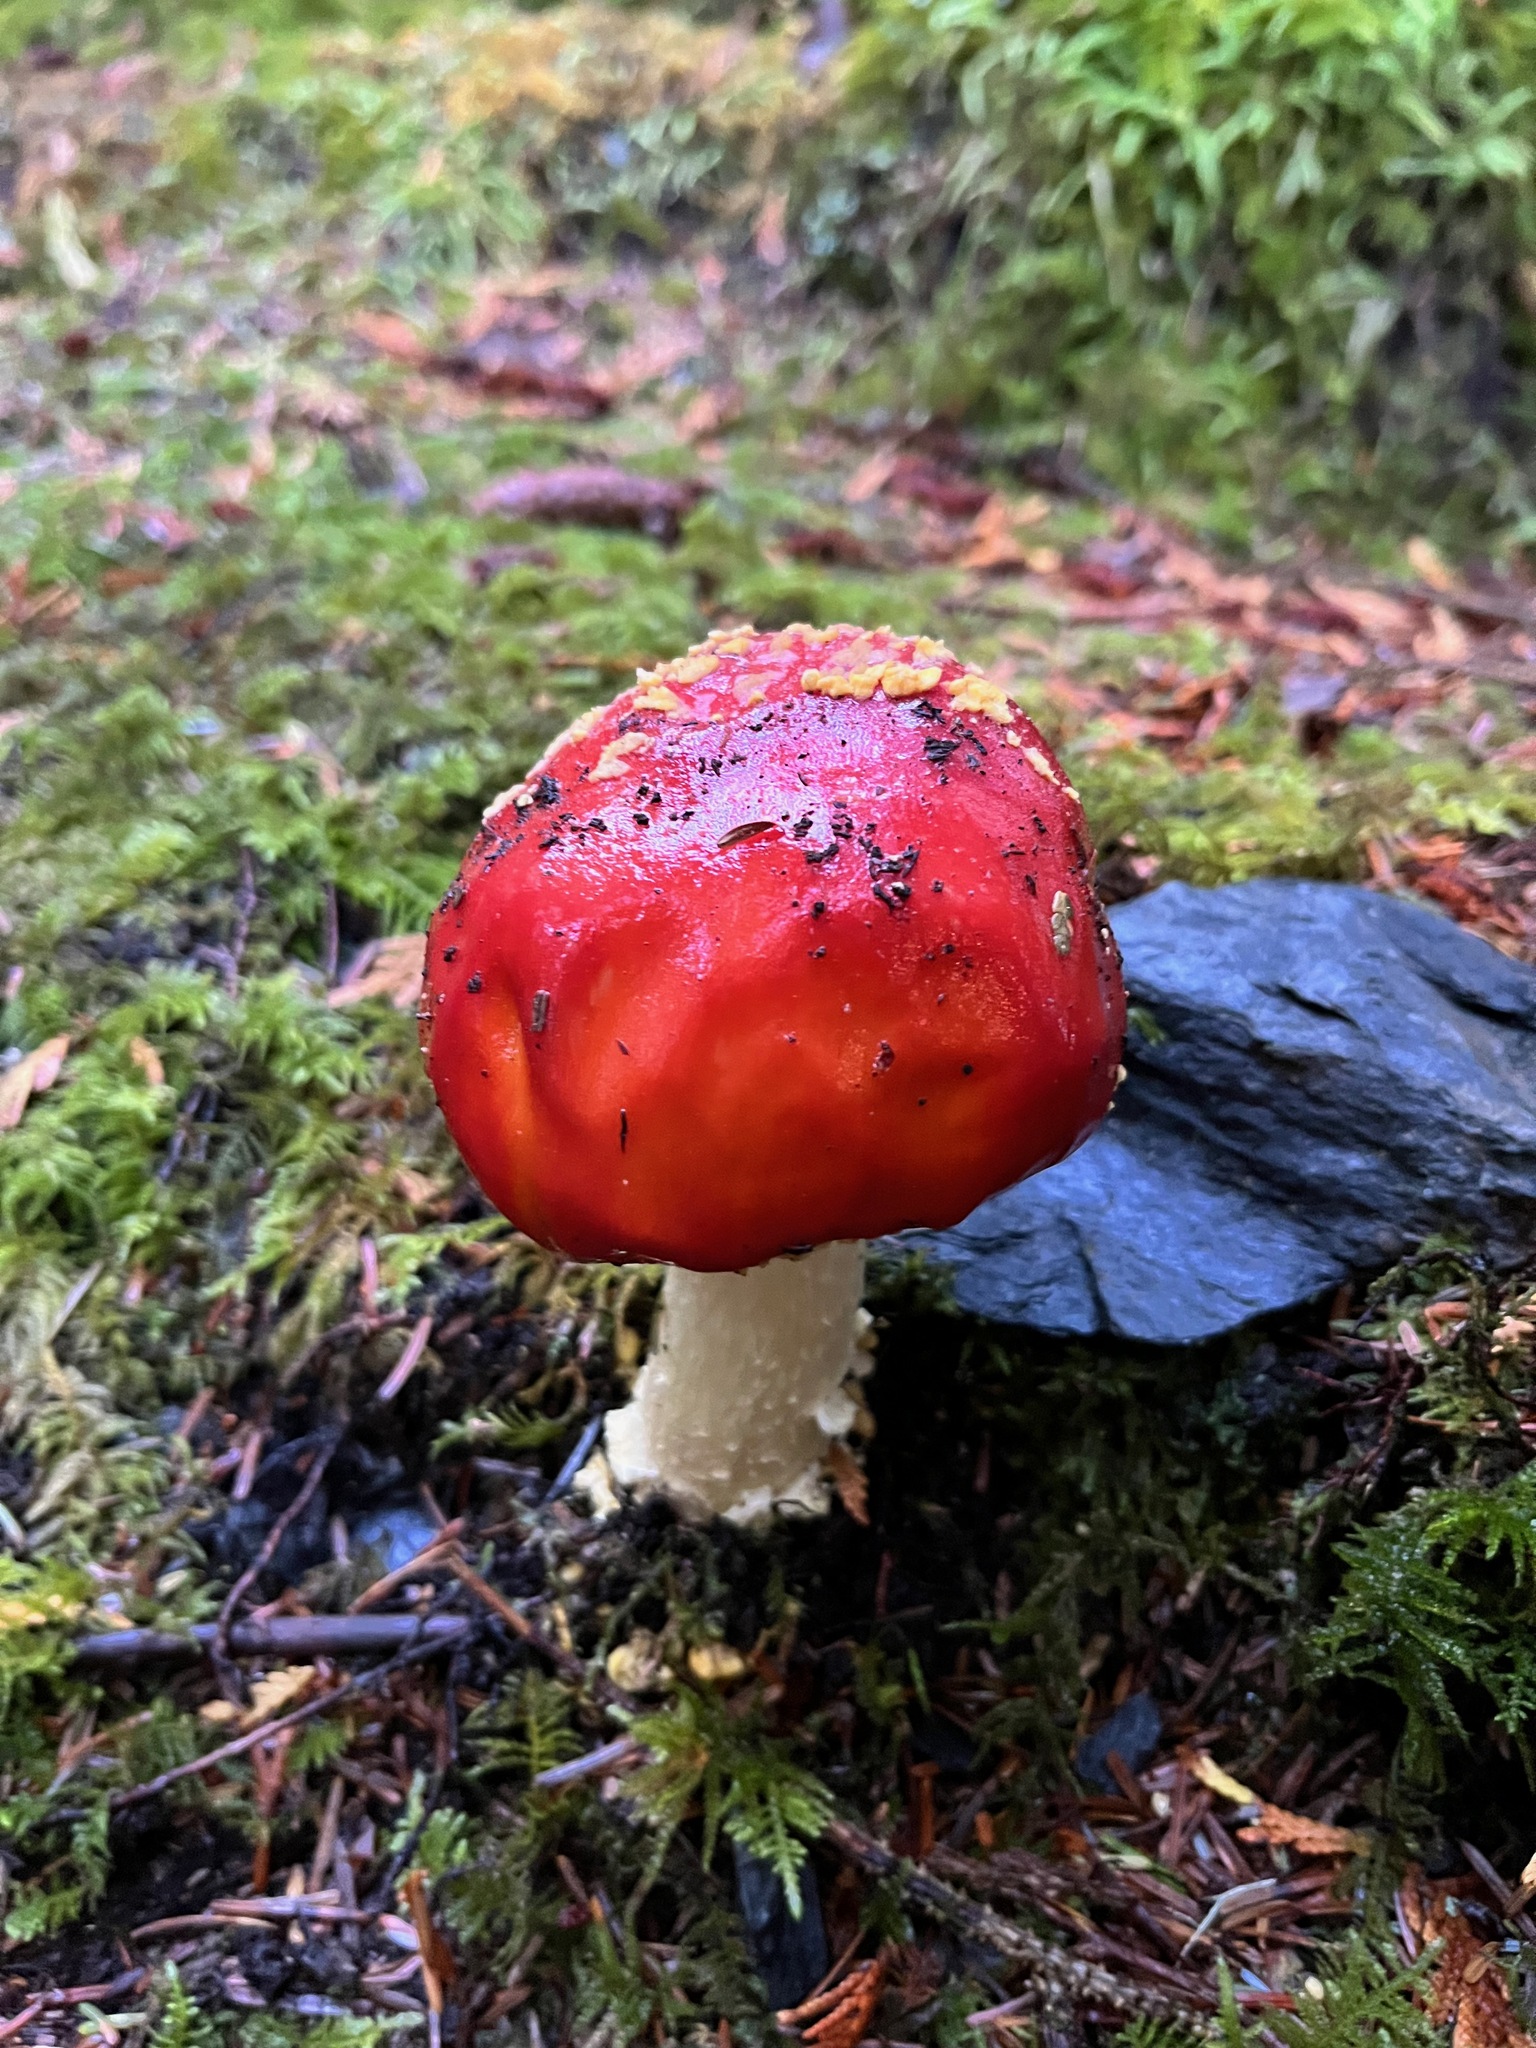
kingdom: Fungi
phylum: Basidiomycota
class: Agaricomycetes
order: Agaricales
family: Amanitaceae
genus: Amanita
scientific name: Amanita muscaria
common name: Fly agaric
